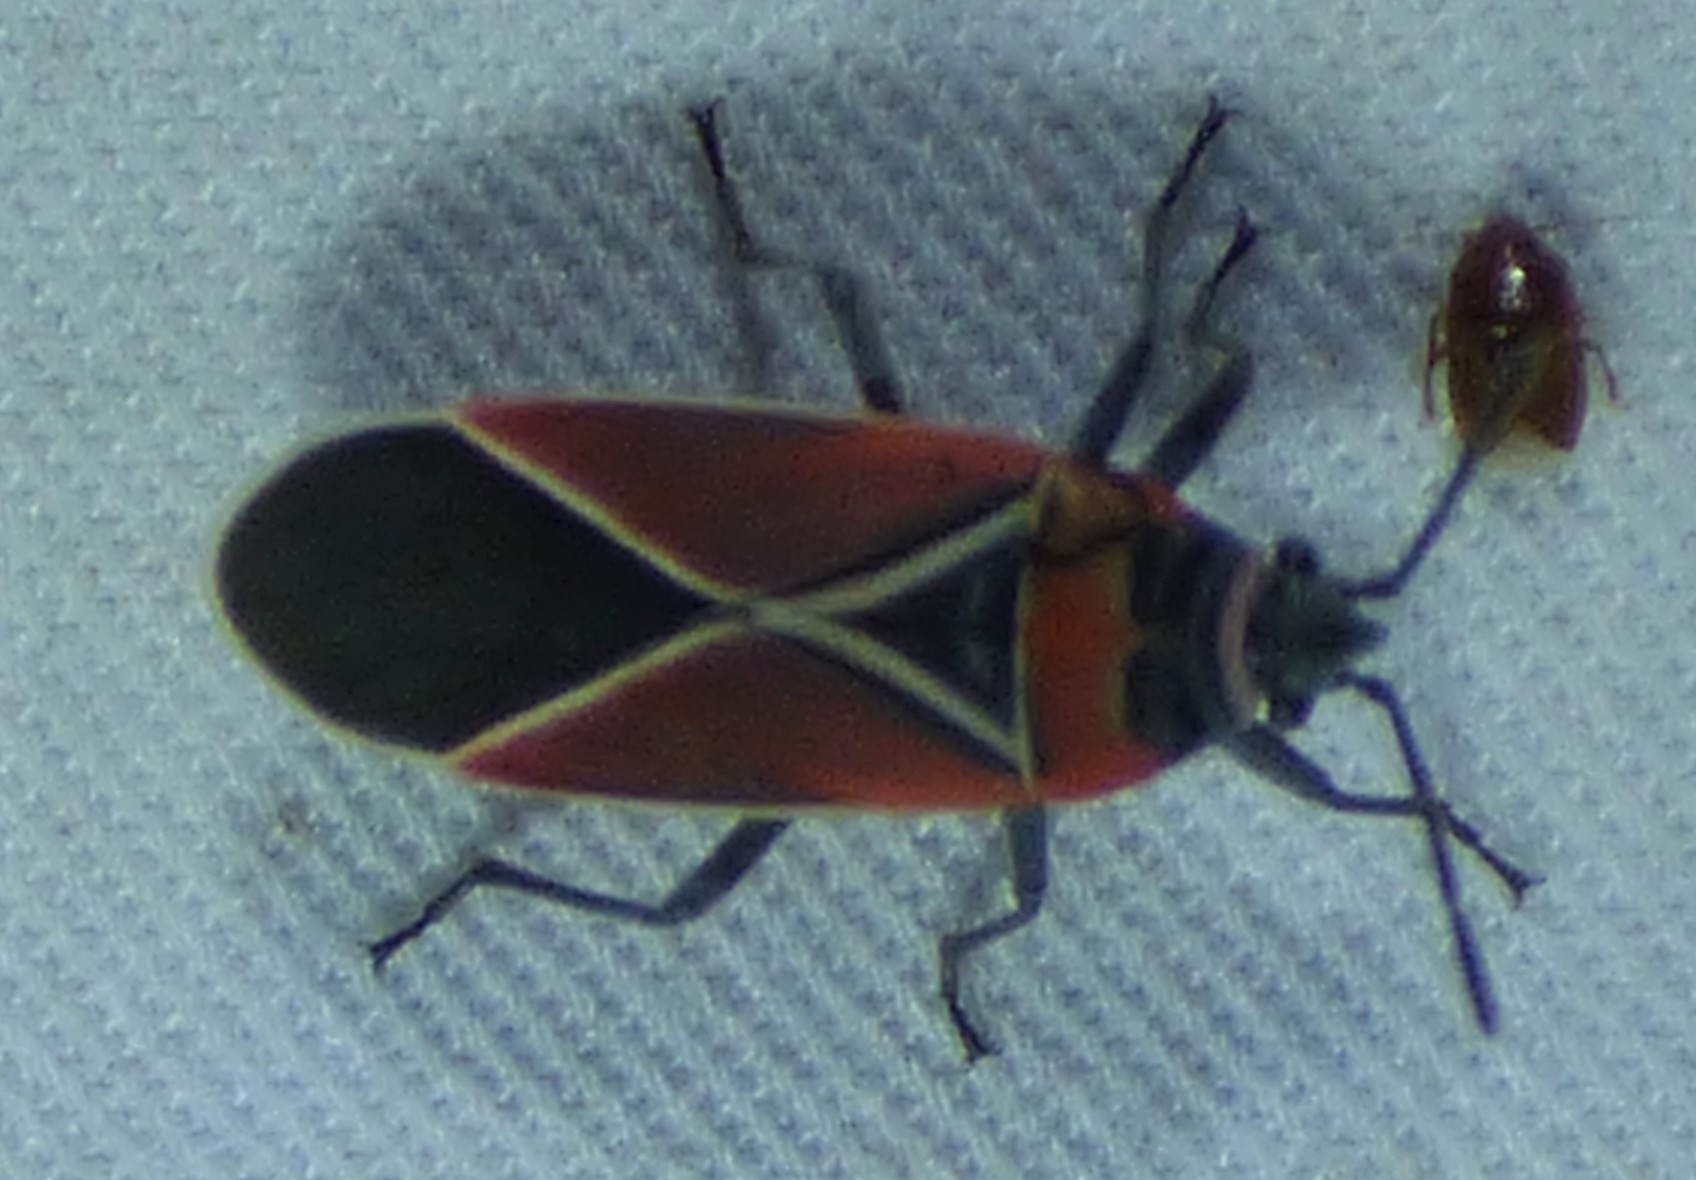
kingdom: Animalia
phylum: Arthropoda
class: Insecta
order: Hemiptera
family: Lygaeidae
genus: Neacoryphus
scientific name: Neacoryphus bicrucis
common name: Lygaeid bug
